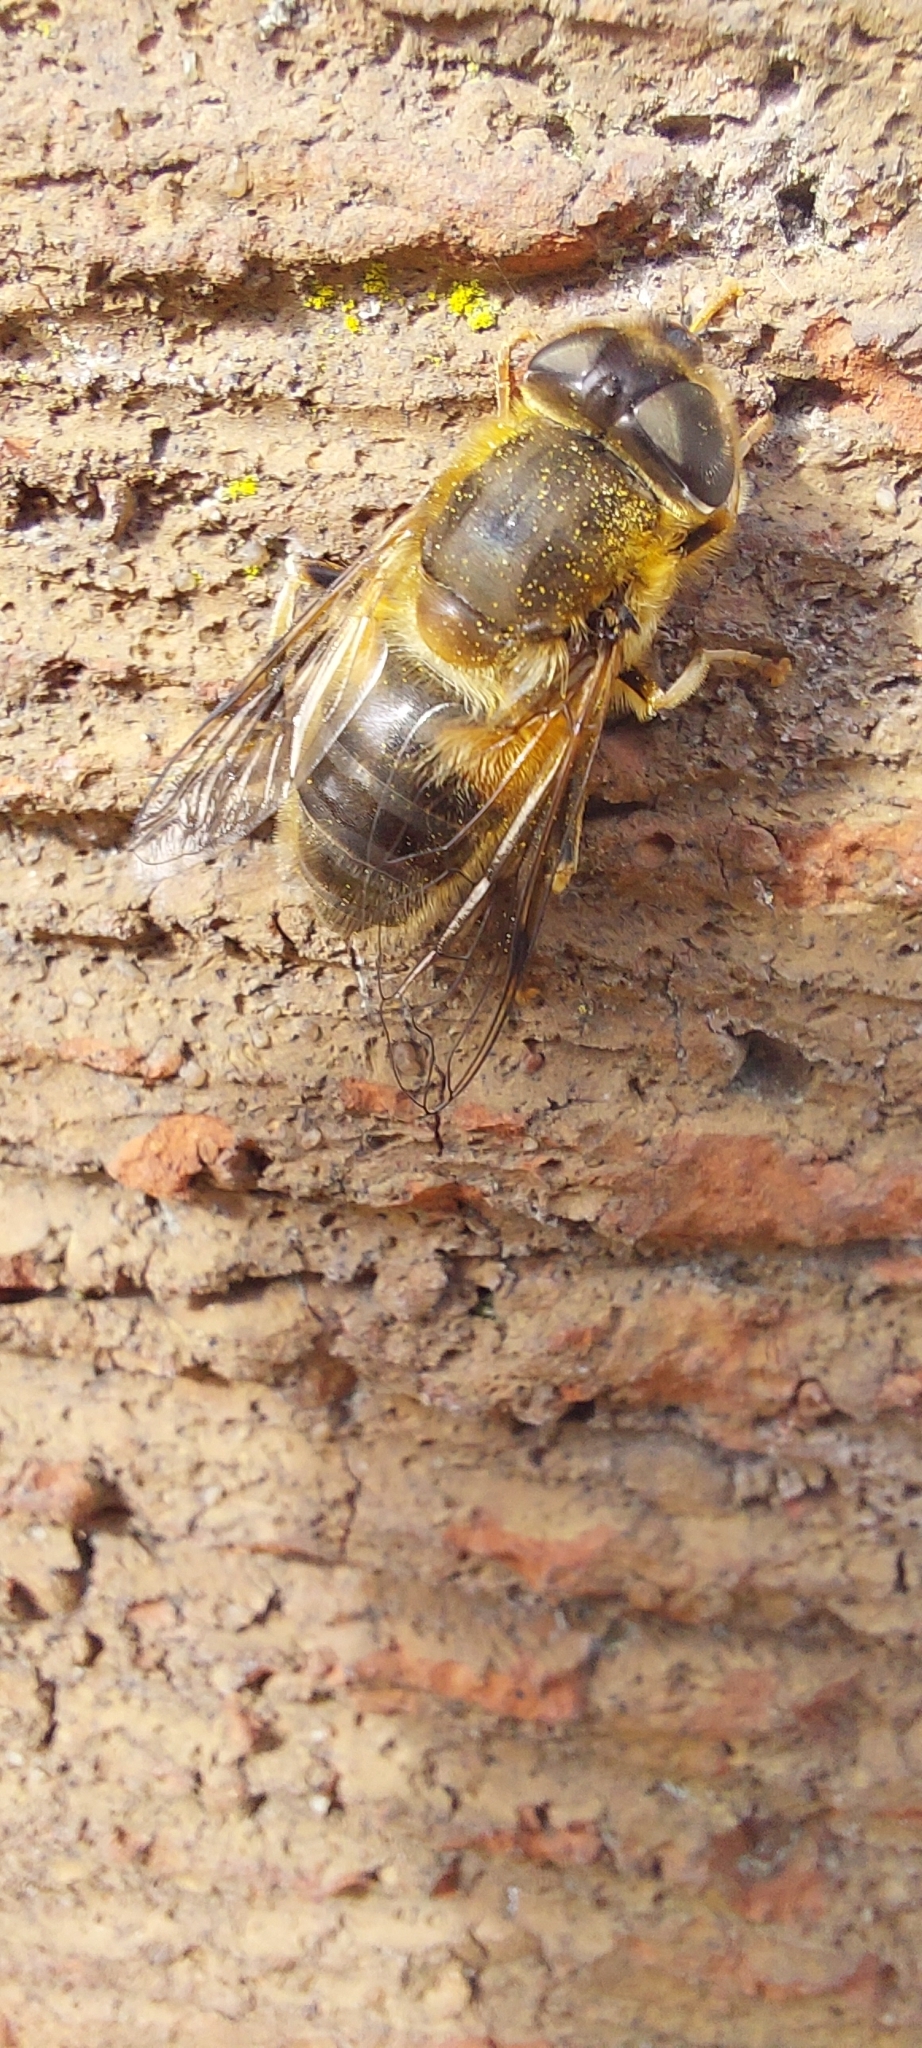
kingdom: Animalia
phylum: Arthropoda
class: Insecta
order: Diptera
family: Syrphidae
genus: Eristalis
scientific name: Eristalis pertinax
